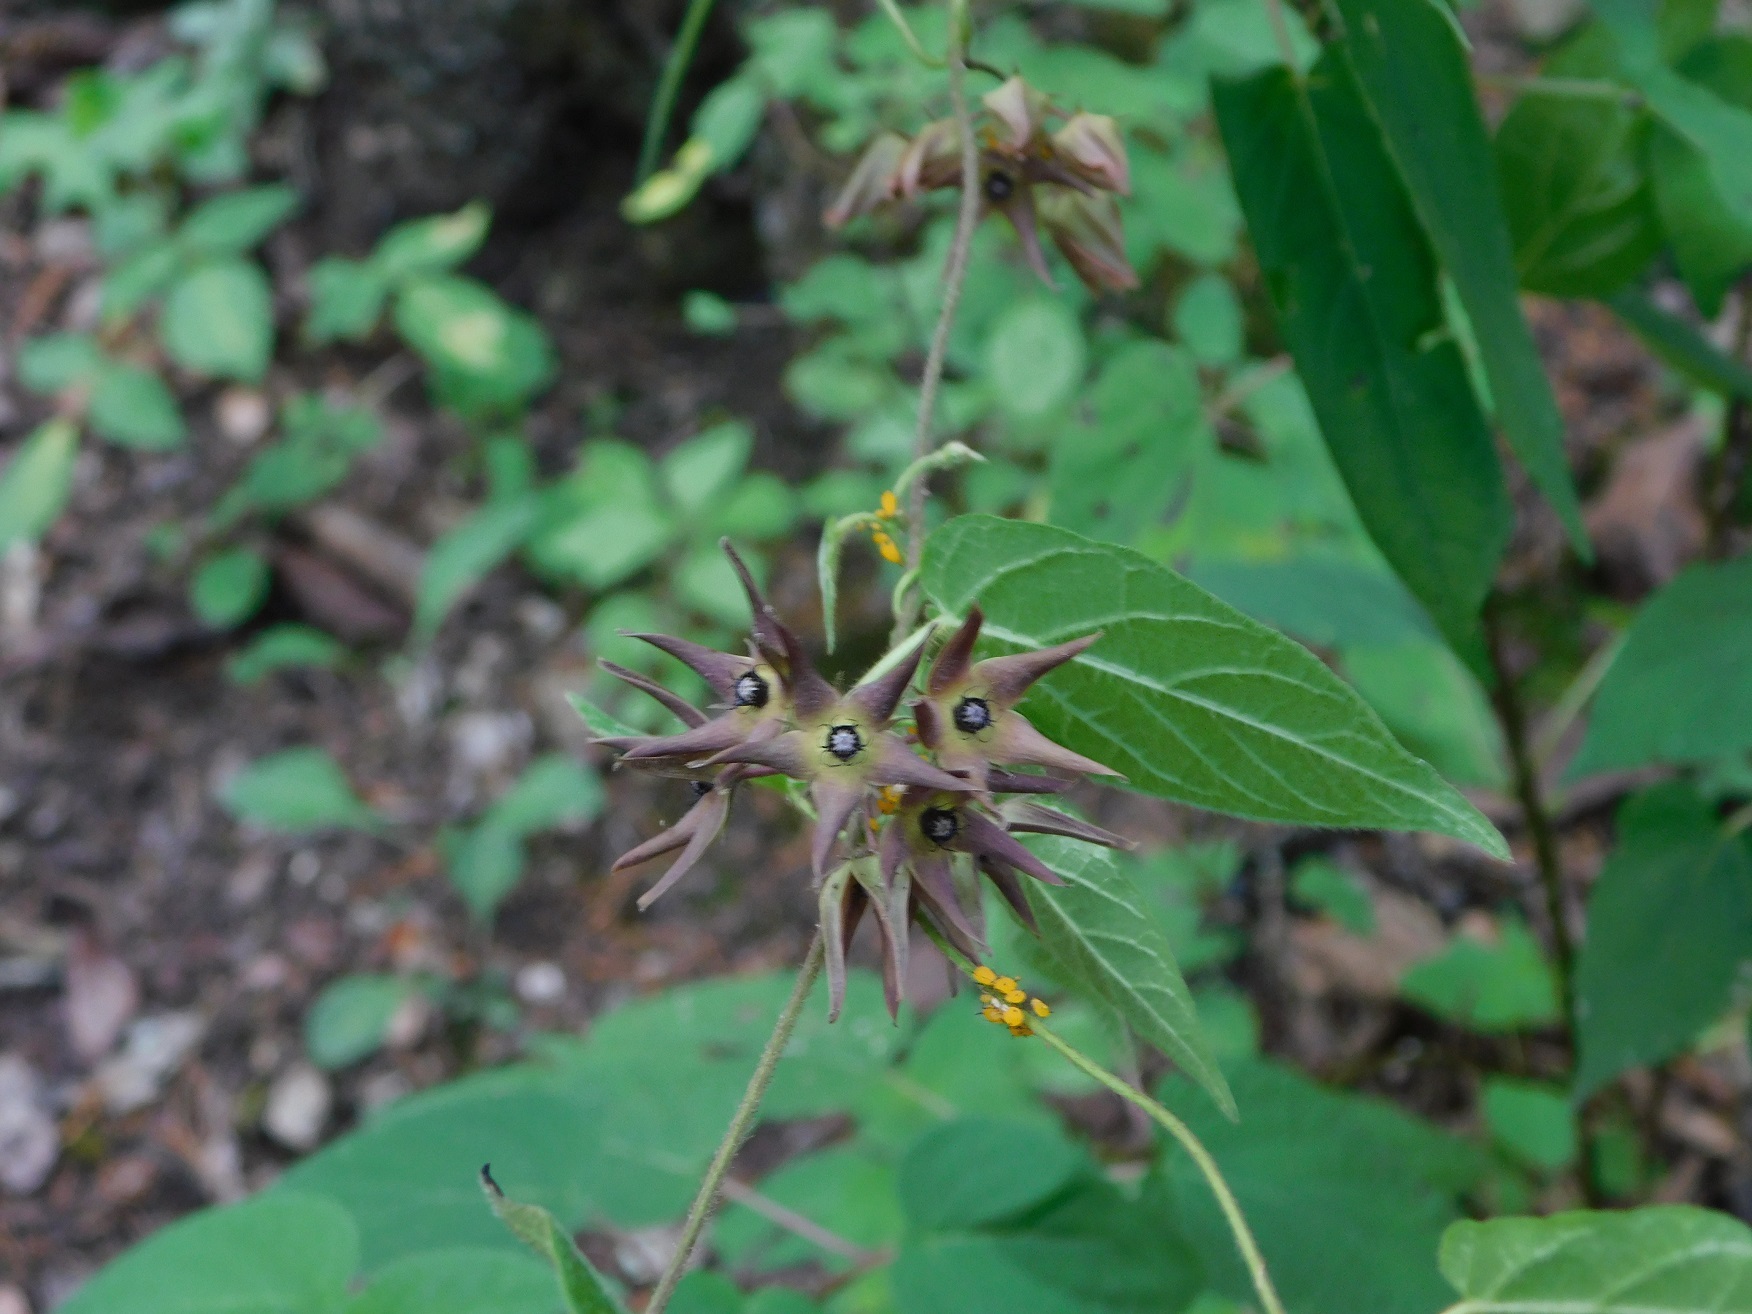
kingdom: Plantae
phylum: Tracheophyta
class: Magnoliopsida
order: Gentianales
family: Apocynaceae
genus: Matelea
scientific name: Matelea gonoloboides
